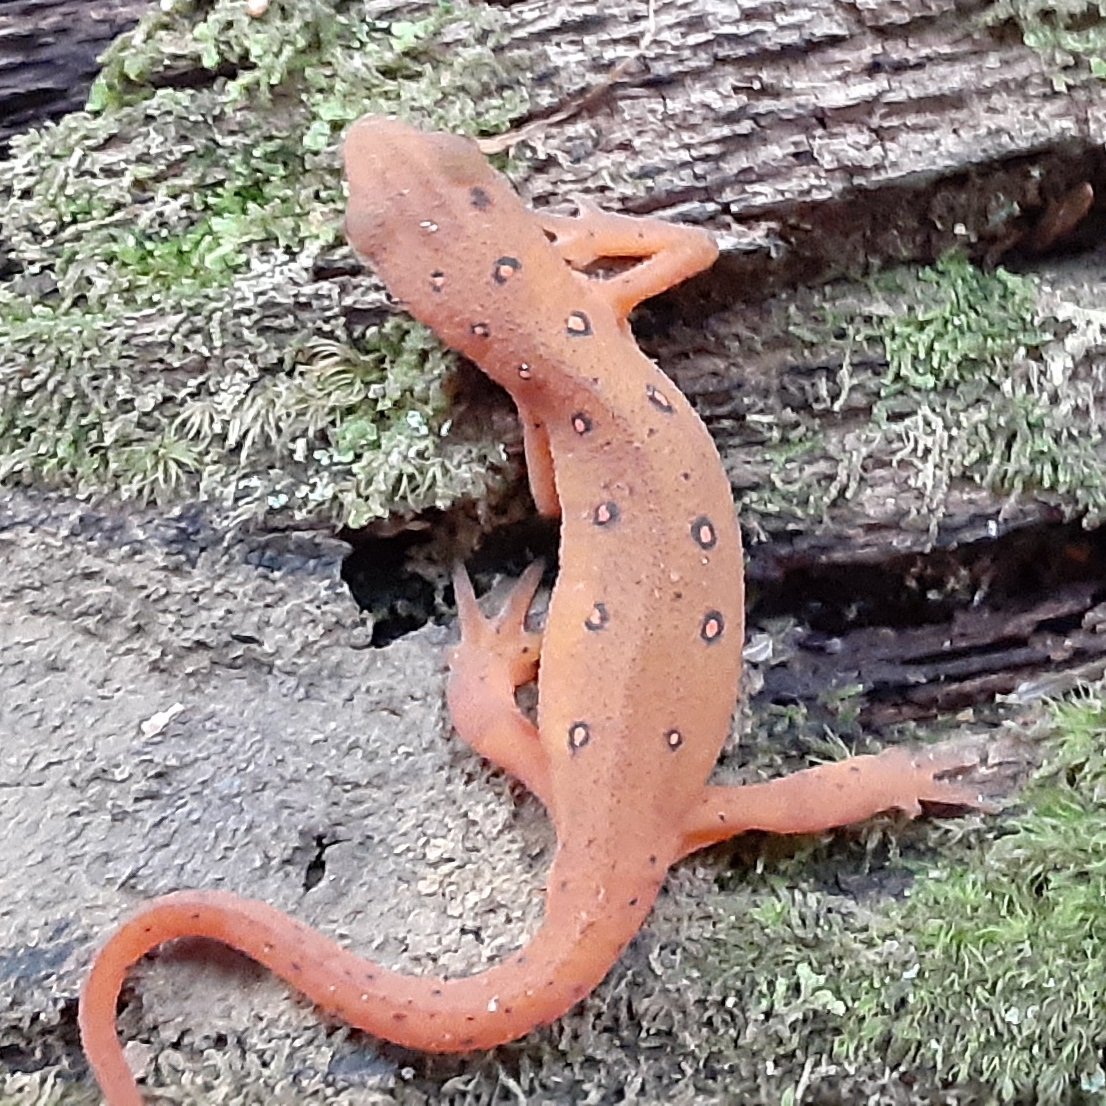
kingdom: Animalia
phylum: Chordata
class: Amphibia
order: Caudata
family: Salamandridae
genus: Notophthalmus
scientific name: Notophthalmus viridescens
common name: Eastern newt
